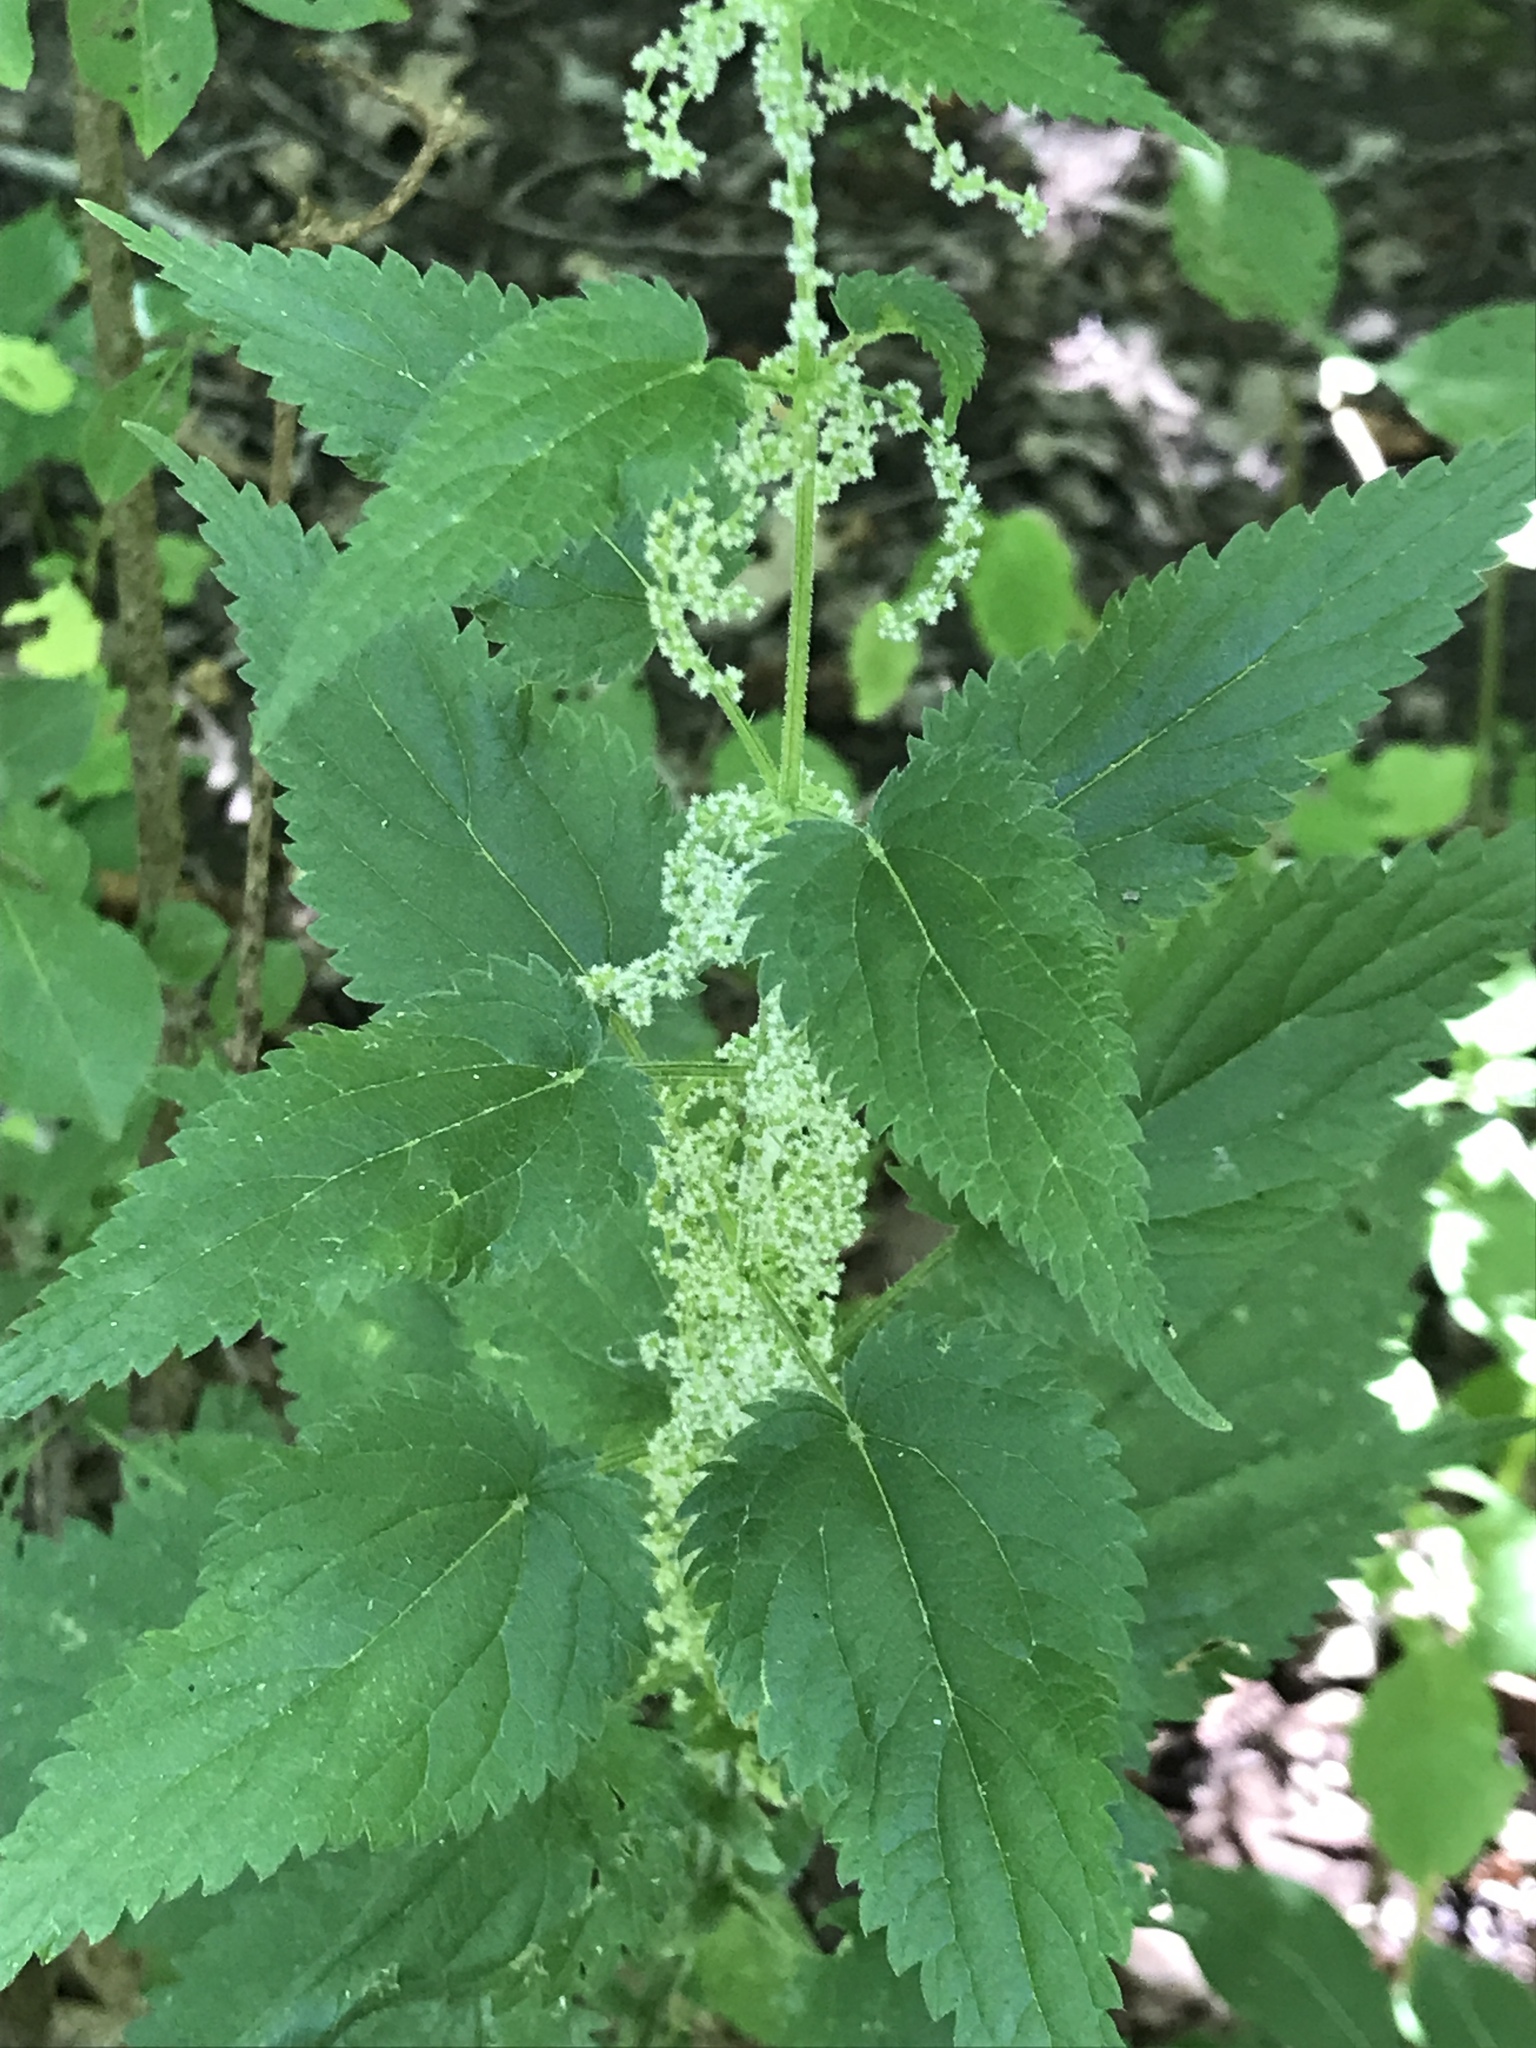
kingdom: Plantae
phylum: Tracheophyta
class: Magnoliopsida
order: Rosales
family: Urticaceae
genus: Urtica
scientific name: Urtica dioica
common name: Common nettle
